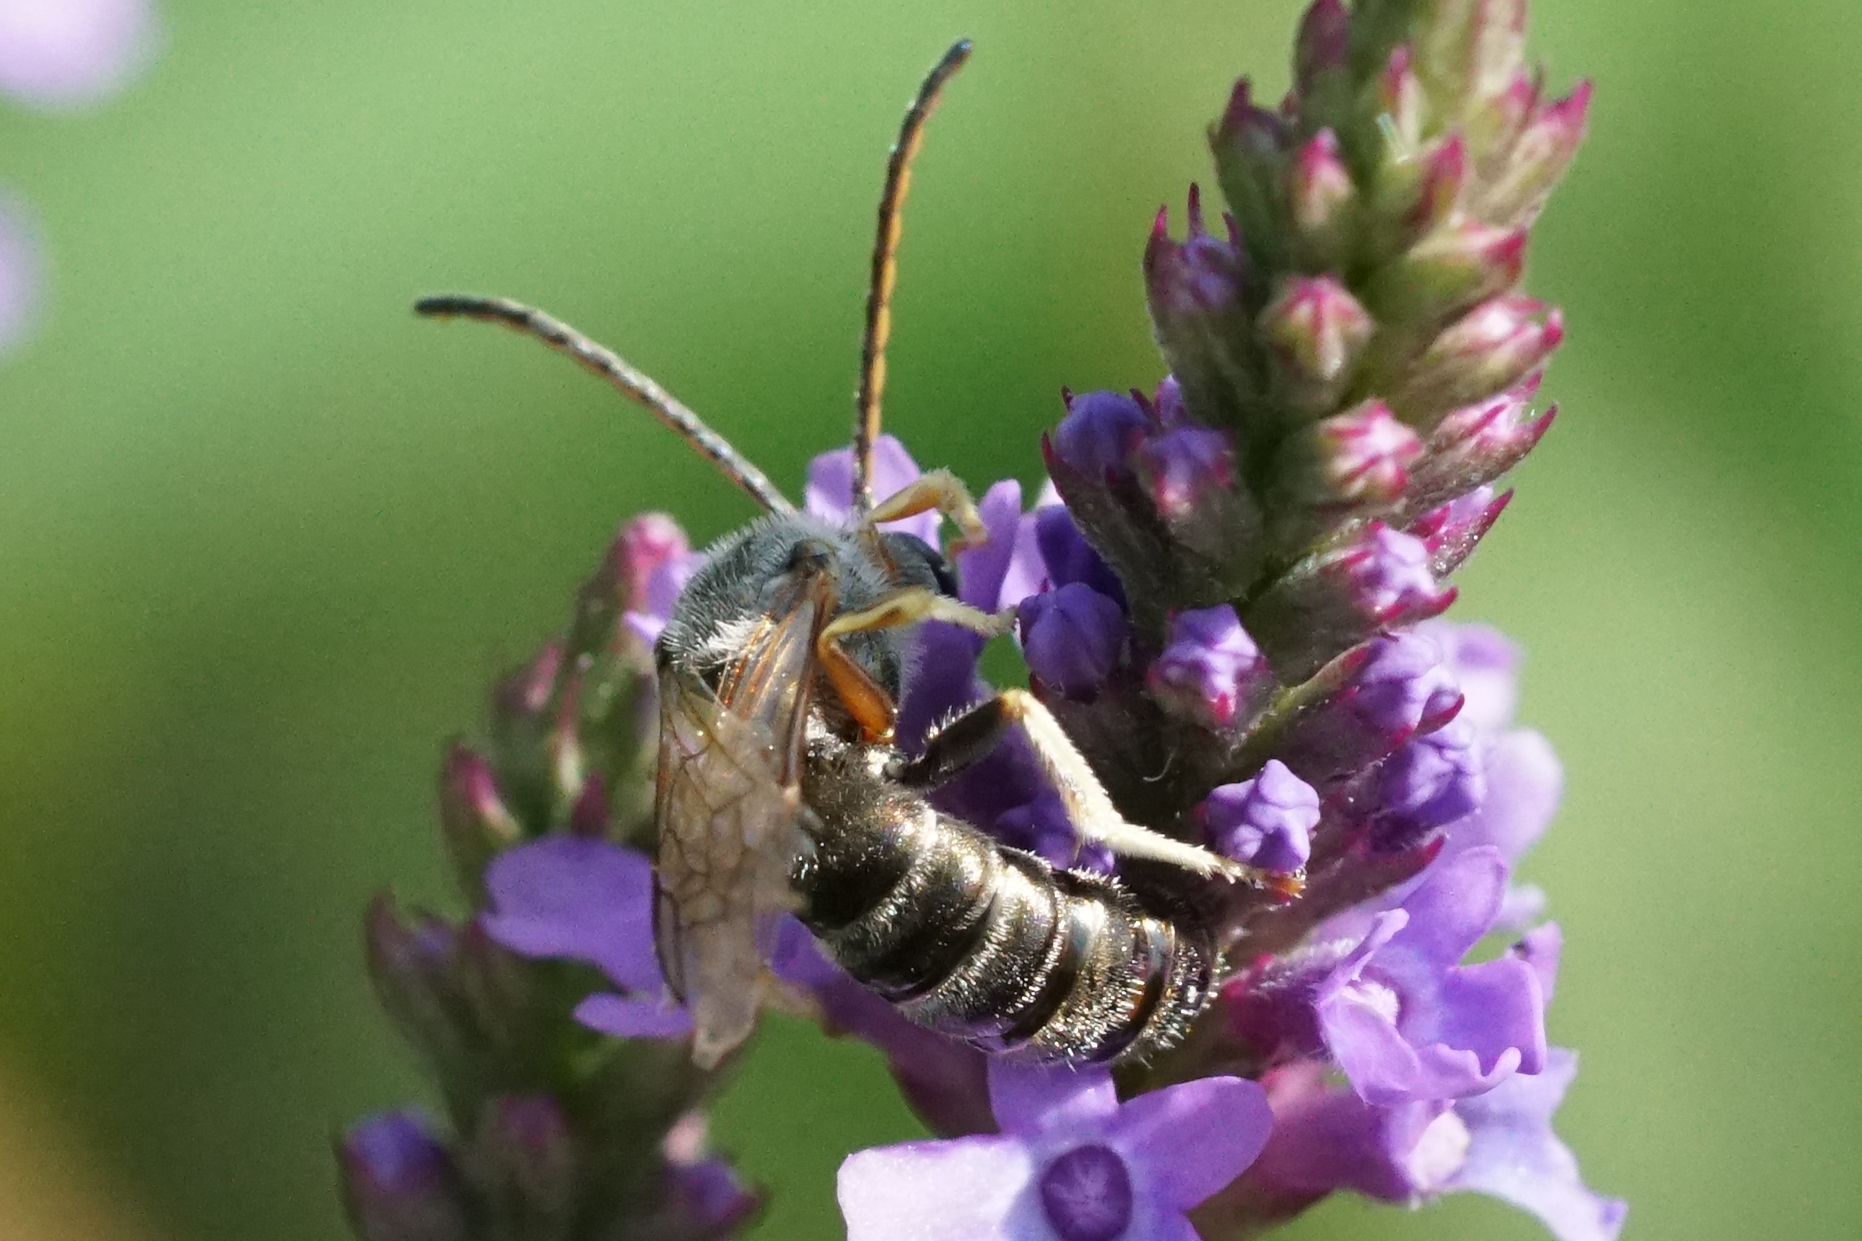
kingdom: Animalia
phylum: Arthropoda
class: Insecta
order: Hymenoptera
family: Halictidae
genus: Halictus
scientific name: Halictus confusus
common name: Southern bronze furrow bee
